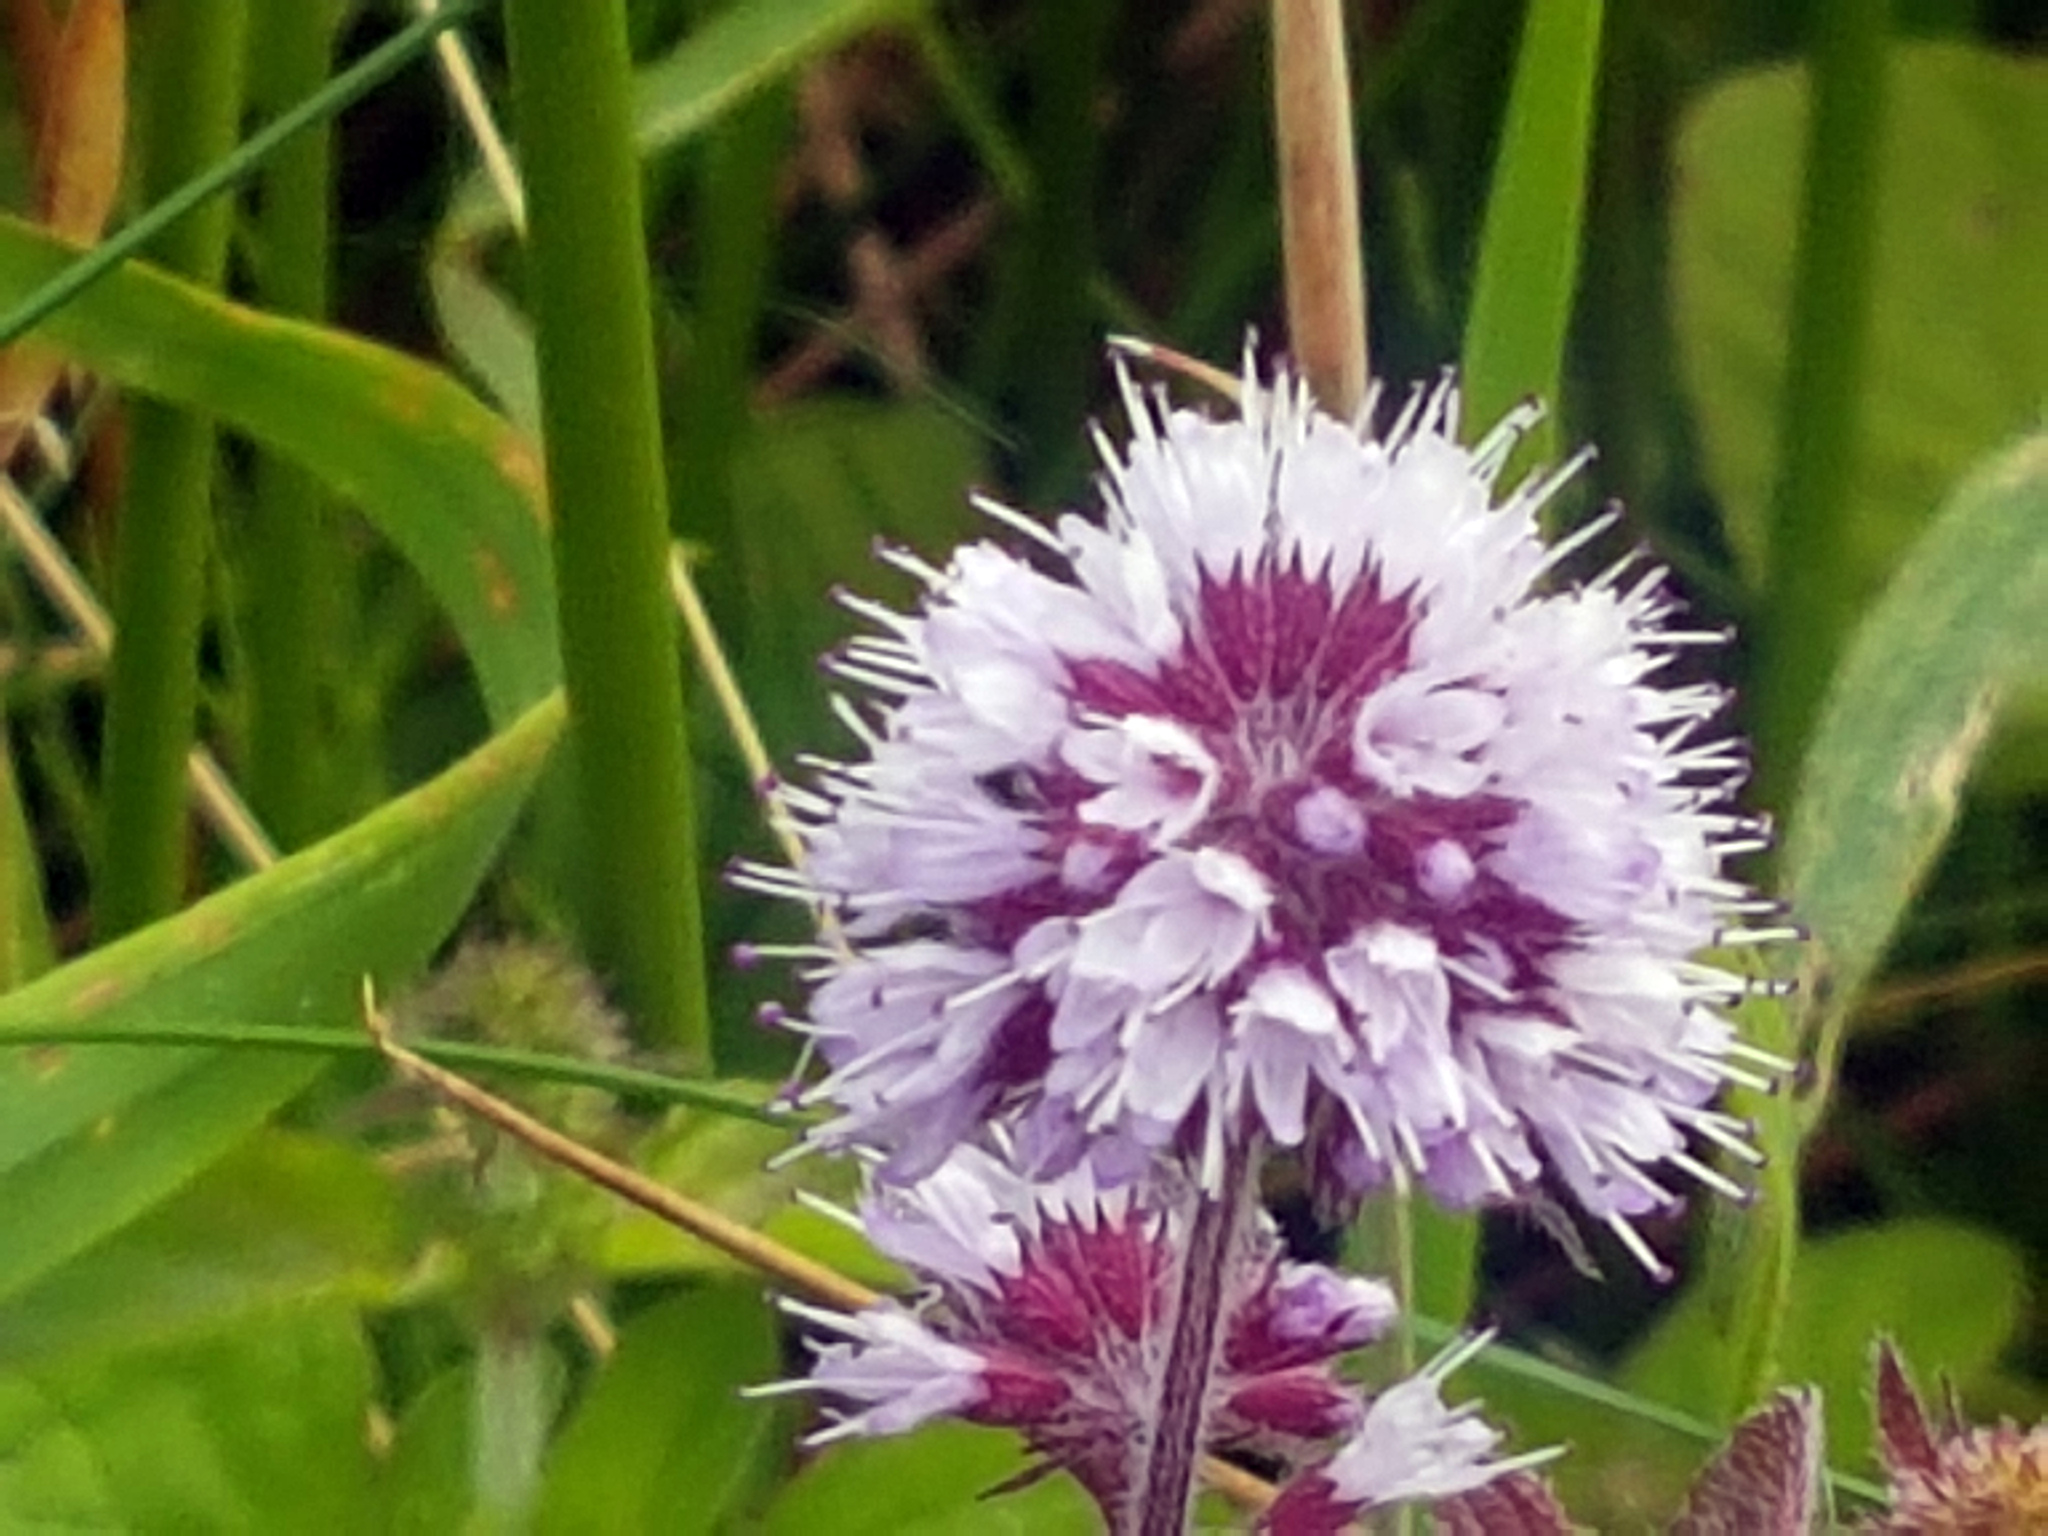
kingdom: Plantae
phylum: Tracheophyta
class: Magnoliopsida
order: Lamiales
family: Lamiaceae
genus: Mentha
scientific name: Mentha aquatica
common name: Water mint
